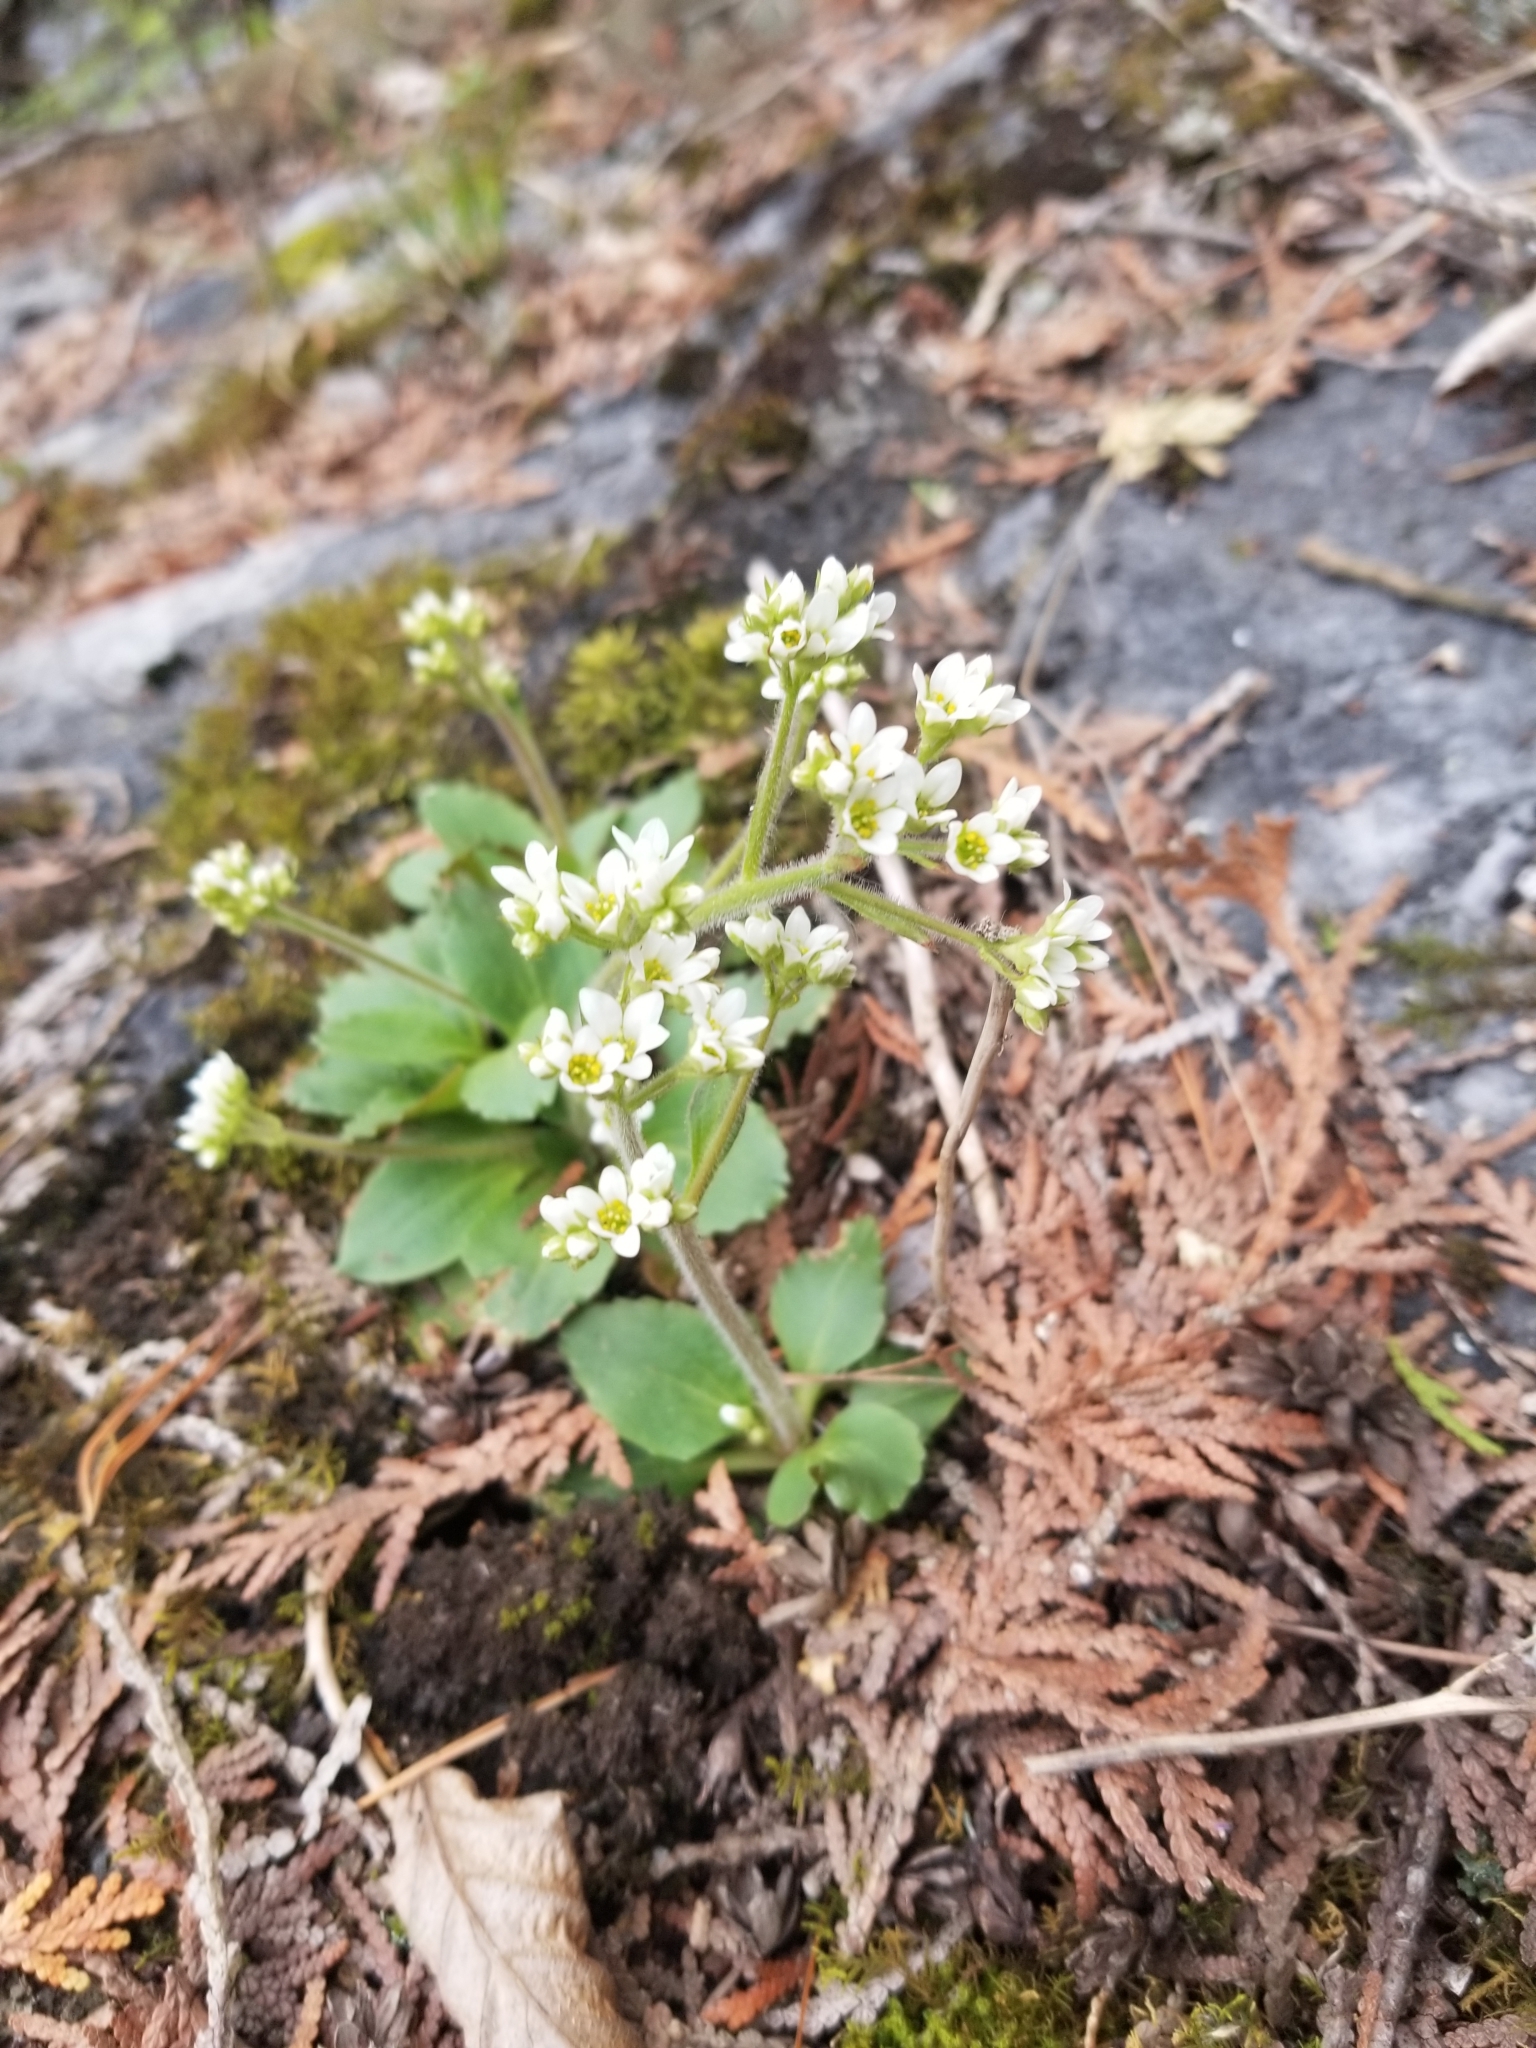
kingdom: Plantae
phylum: Tracheophyta
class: Magnoliopsida
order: Saxifragales
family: Saxifragaceae
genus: Micranthes
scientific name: Micranthes virginiensis
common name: Early saxifrage
